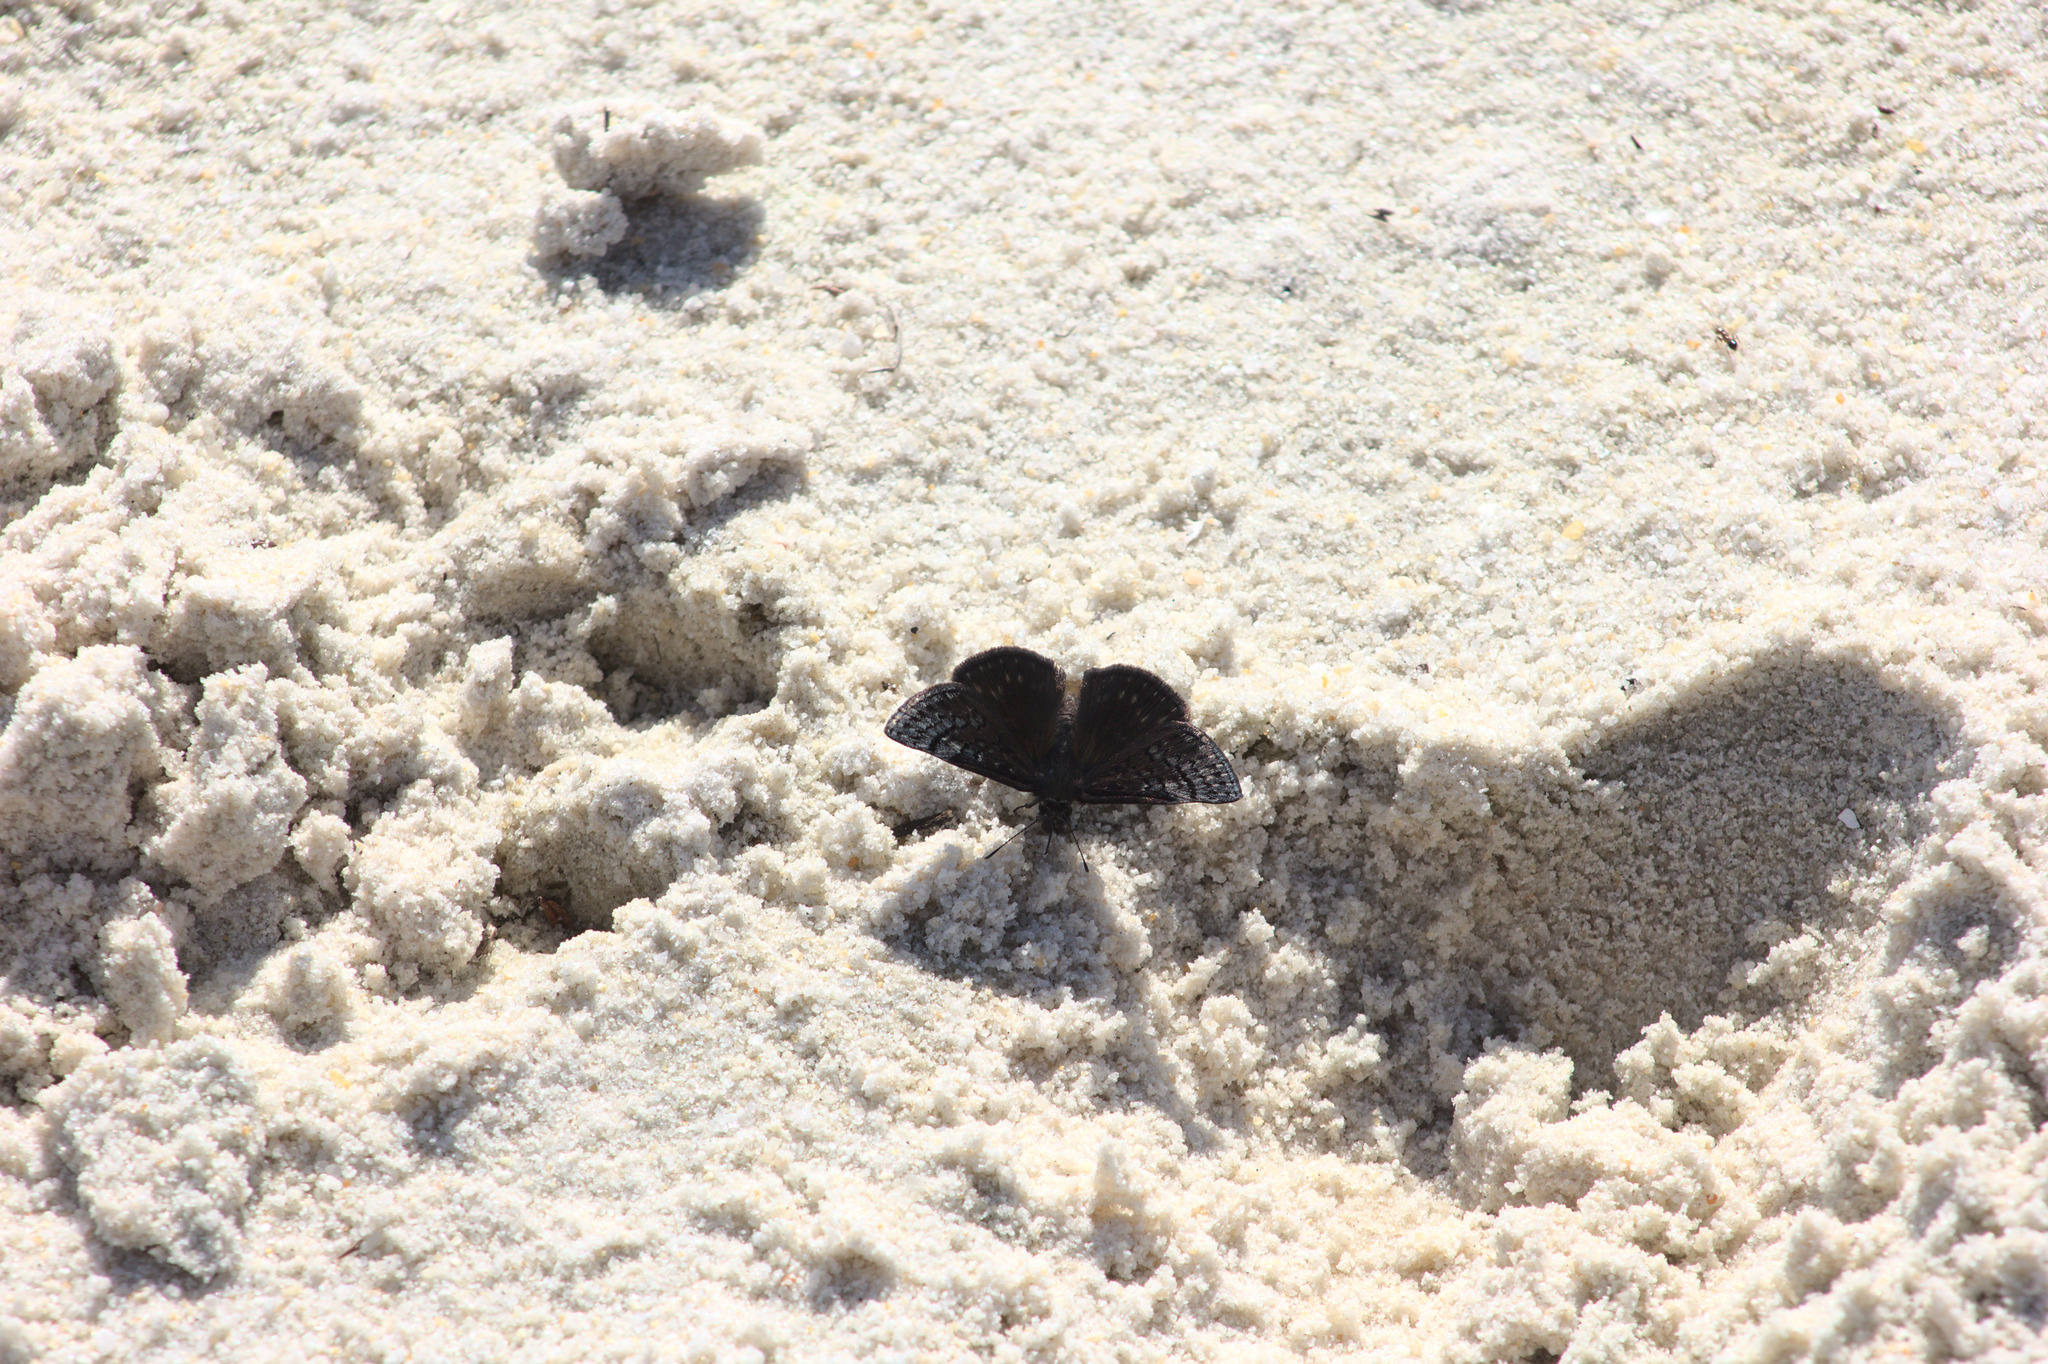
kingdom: Animalia
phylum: Arthropoda
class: Insecta
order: Lepidoptera
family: Hesperiidae
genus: Erynnis
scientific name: Erynnis brizo
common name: Sleepy duskywing
